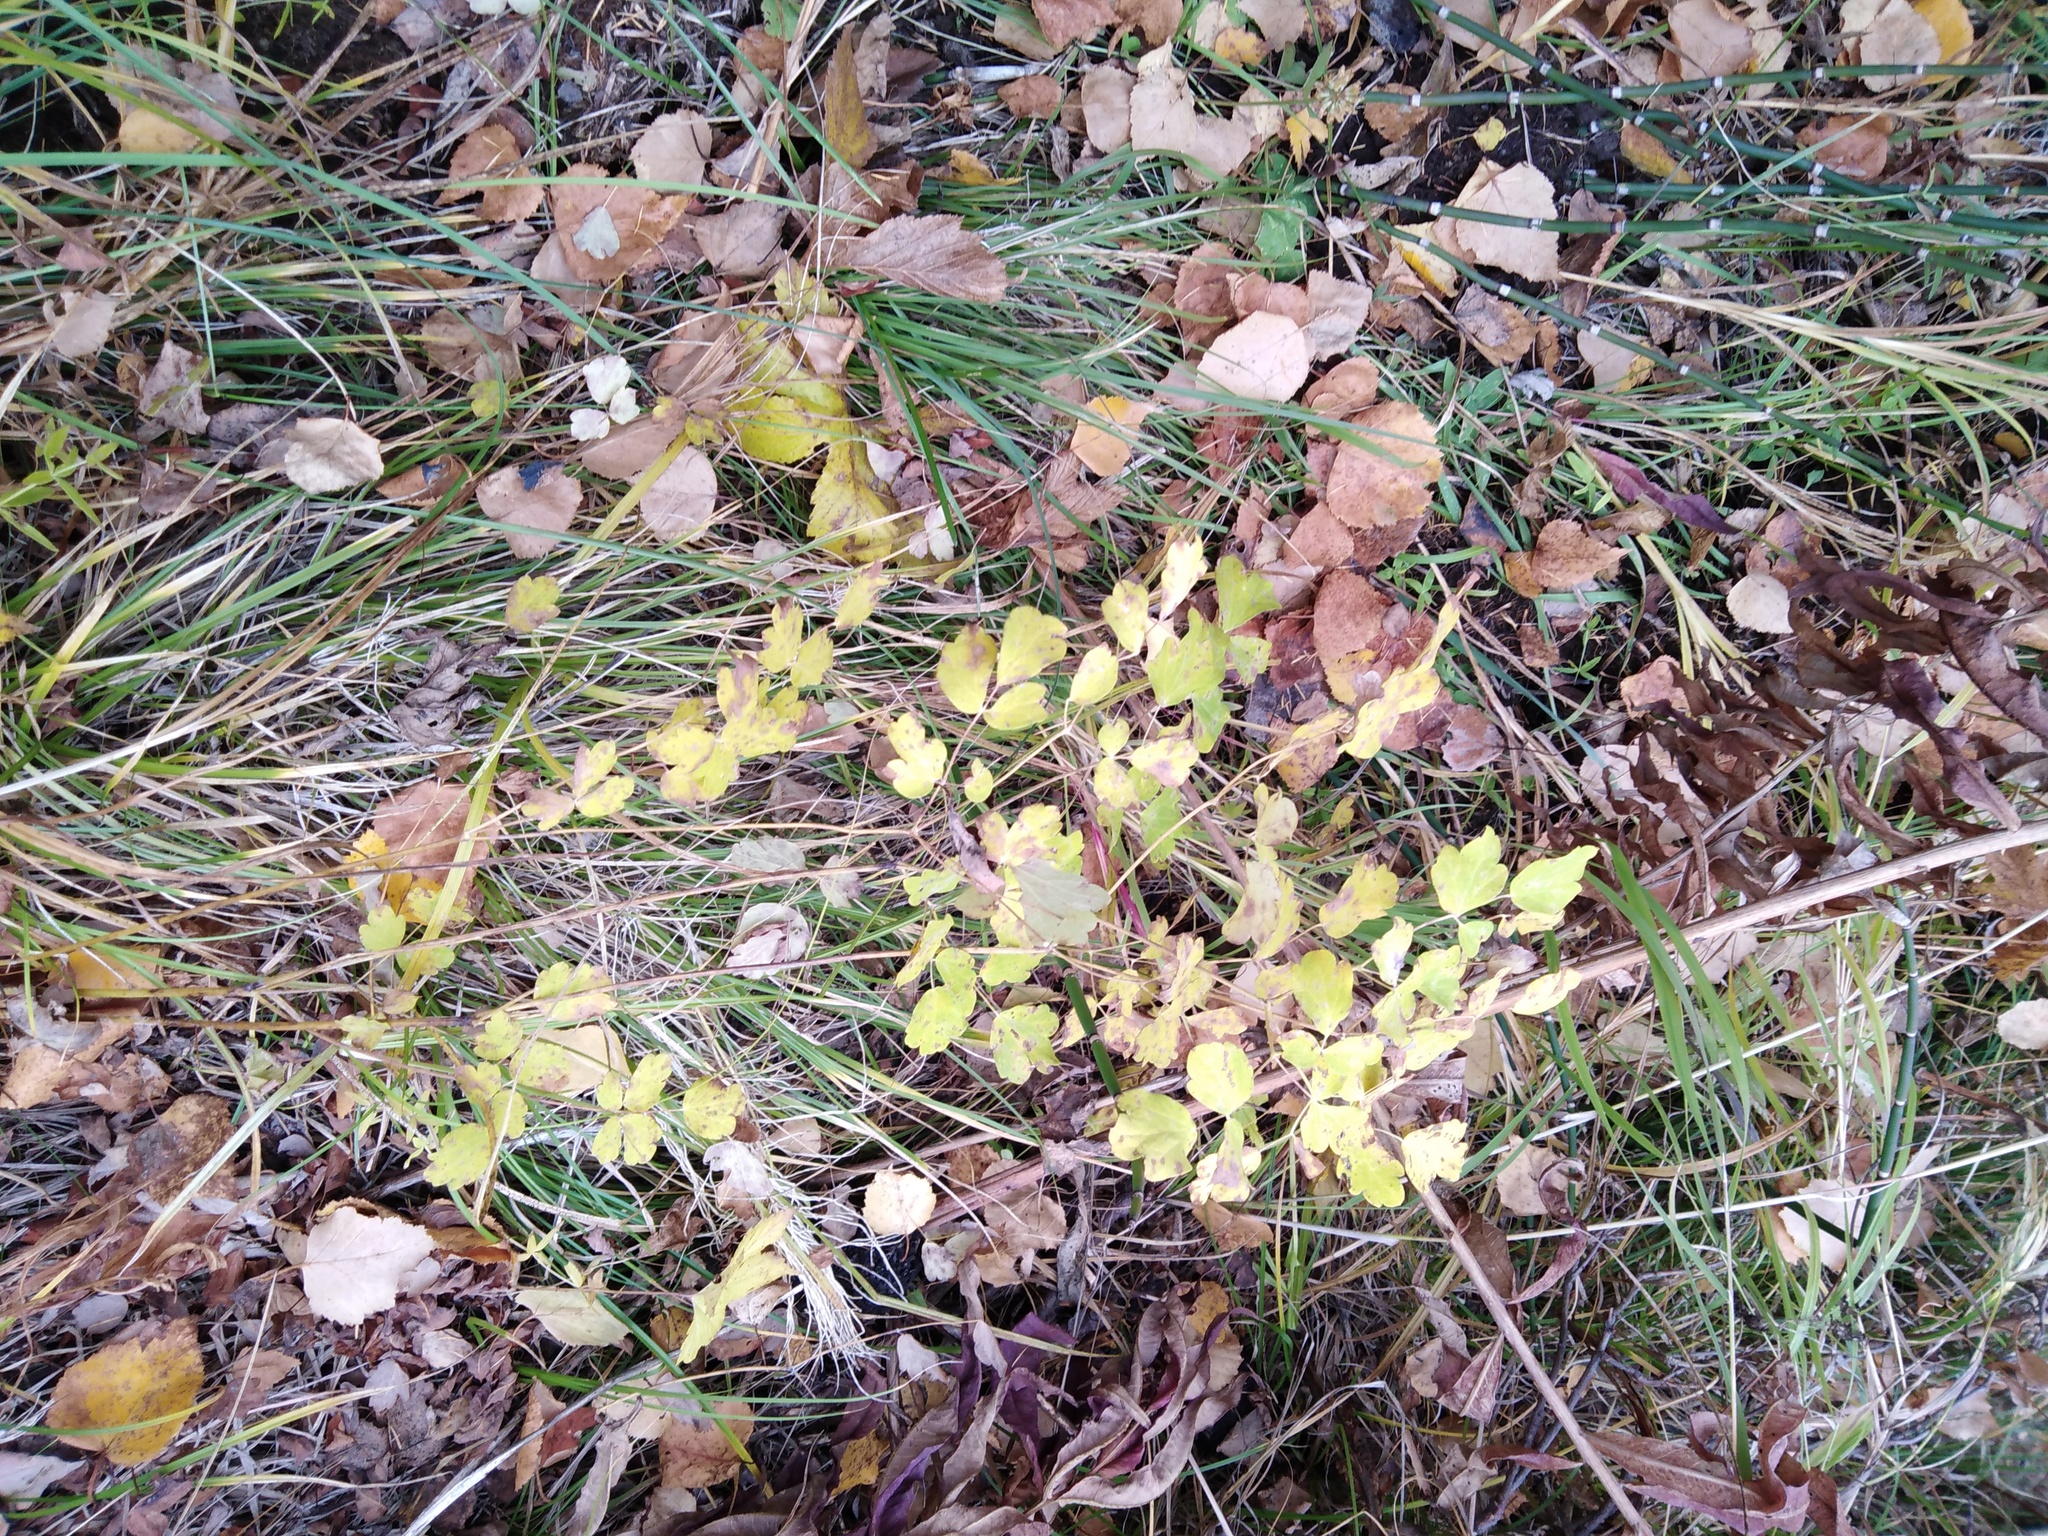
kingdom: Plantae
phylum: Tracheophyta
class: Magnoliopsida
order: Ranunculales
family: Ranunculaceae
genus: Thalictrum
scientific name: Thalictrum minus
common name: Lesser meadow-rue
